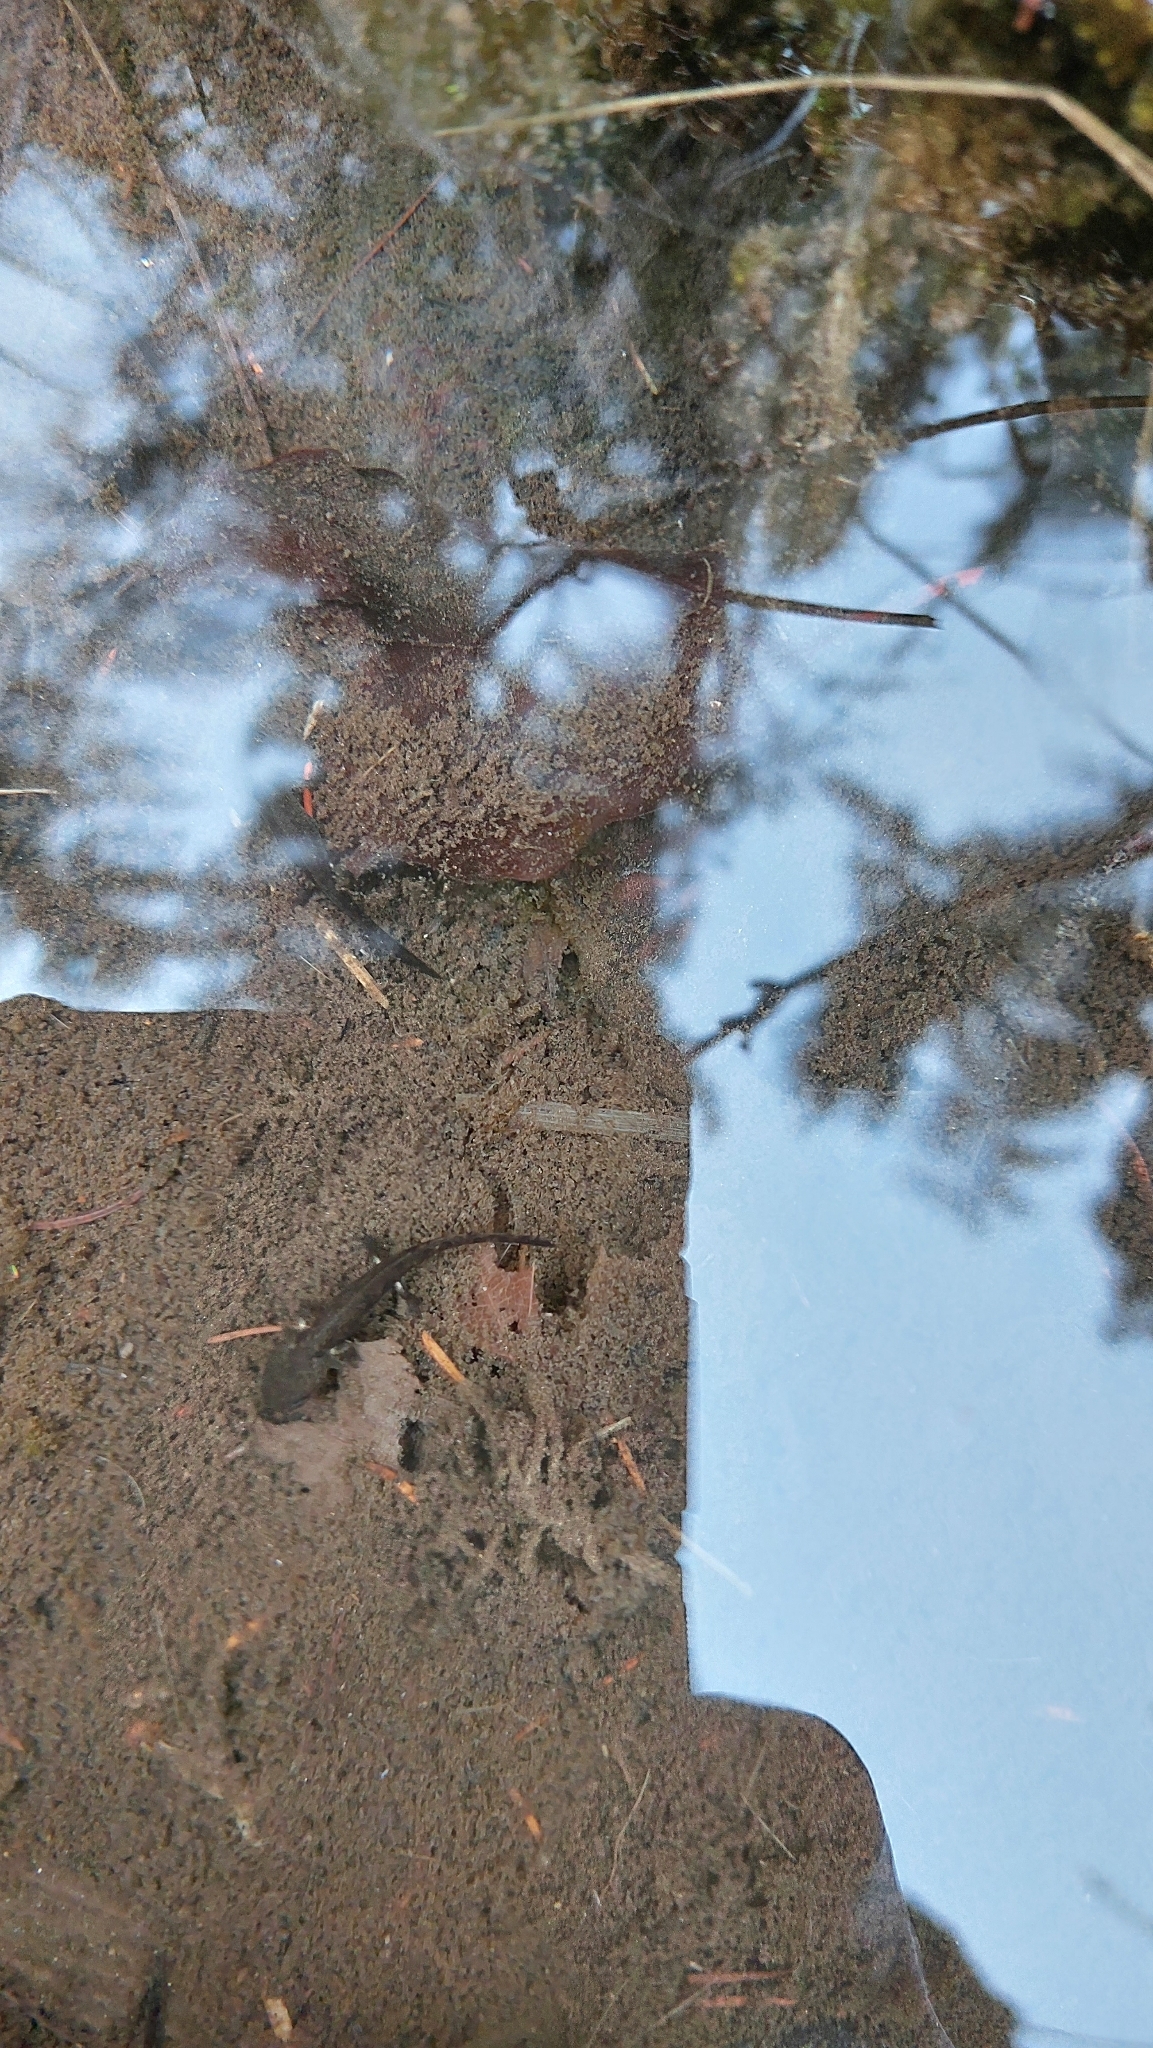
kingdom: Animalia
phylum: Chordata
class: Amphibia
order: Caudata
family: Salamandridae
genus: Salamandra
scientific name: Salamandra salamandra
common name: Fire salamander
